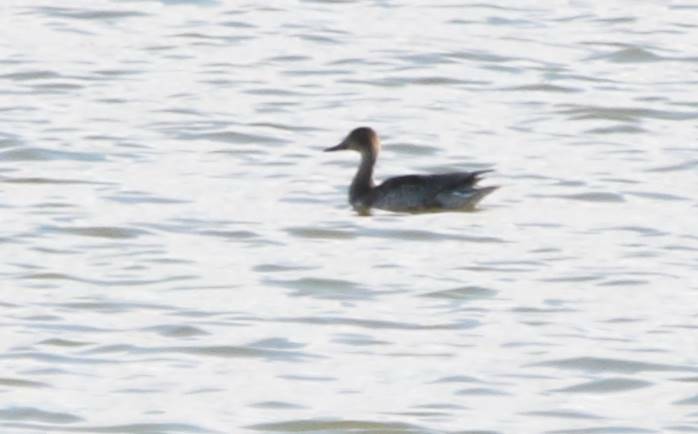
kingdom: Animalia
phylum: Chordata
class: Aves
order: Anseriformes
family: Anatidae
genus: Anas
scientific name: Anas acuta
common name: Northern pintail
